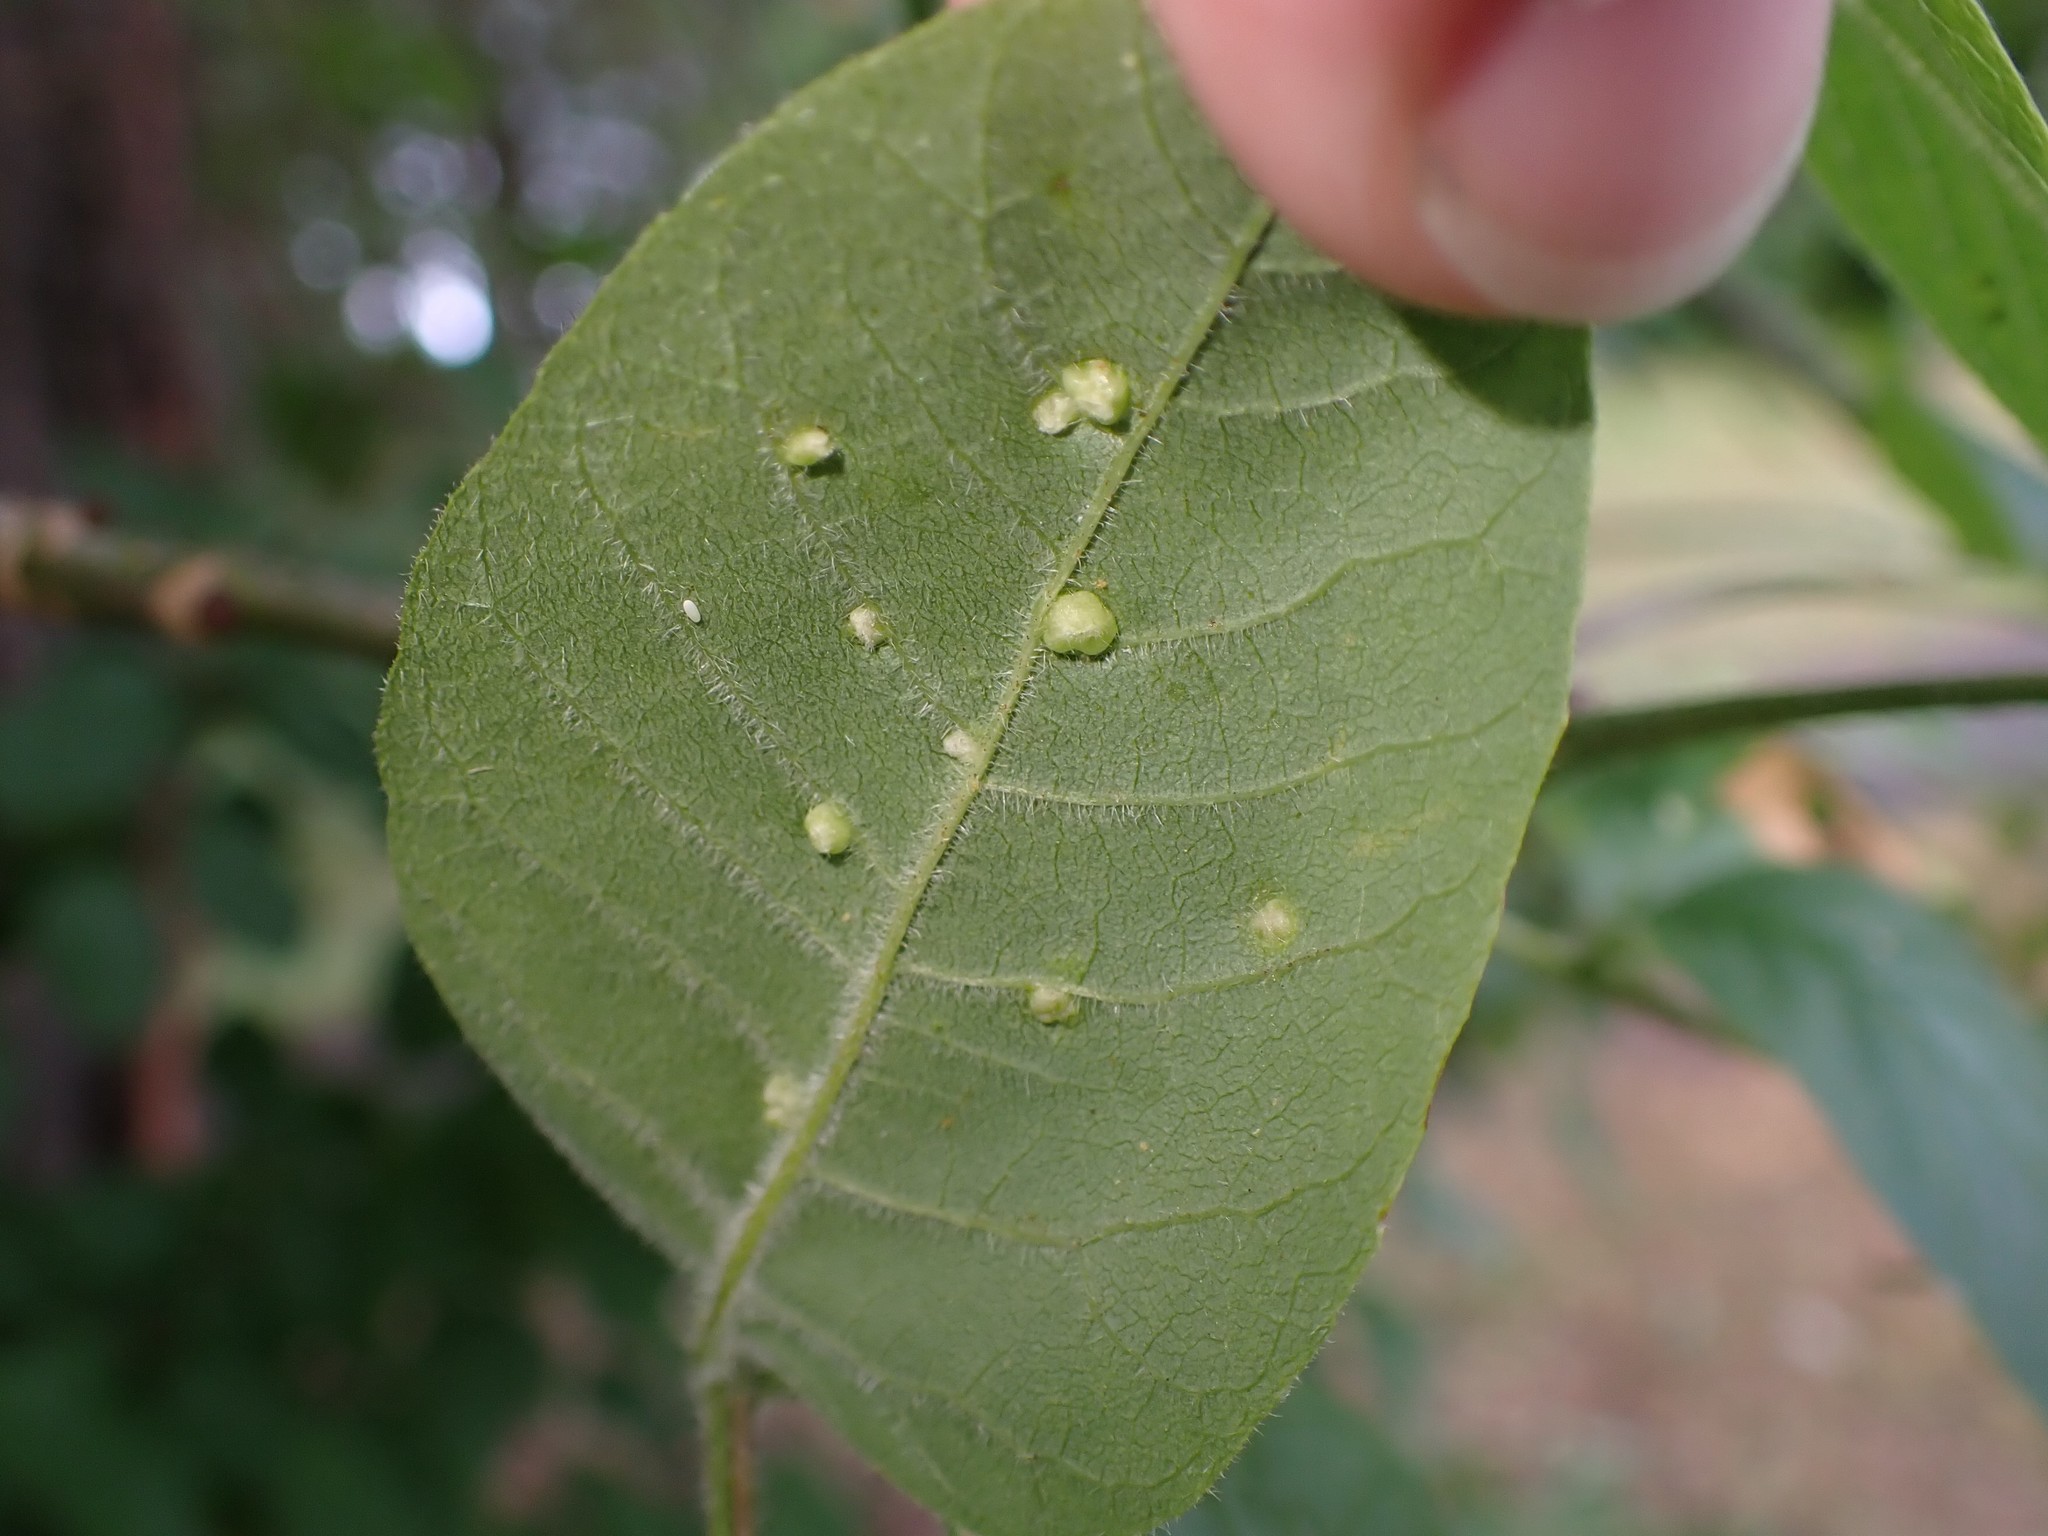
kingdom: Animalia
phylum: Arthropoda
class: Arachnida
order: Trombidiformes
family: Eriophyidae
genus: Aceria
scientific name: Aceria fraxinicola
